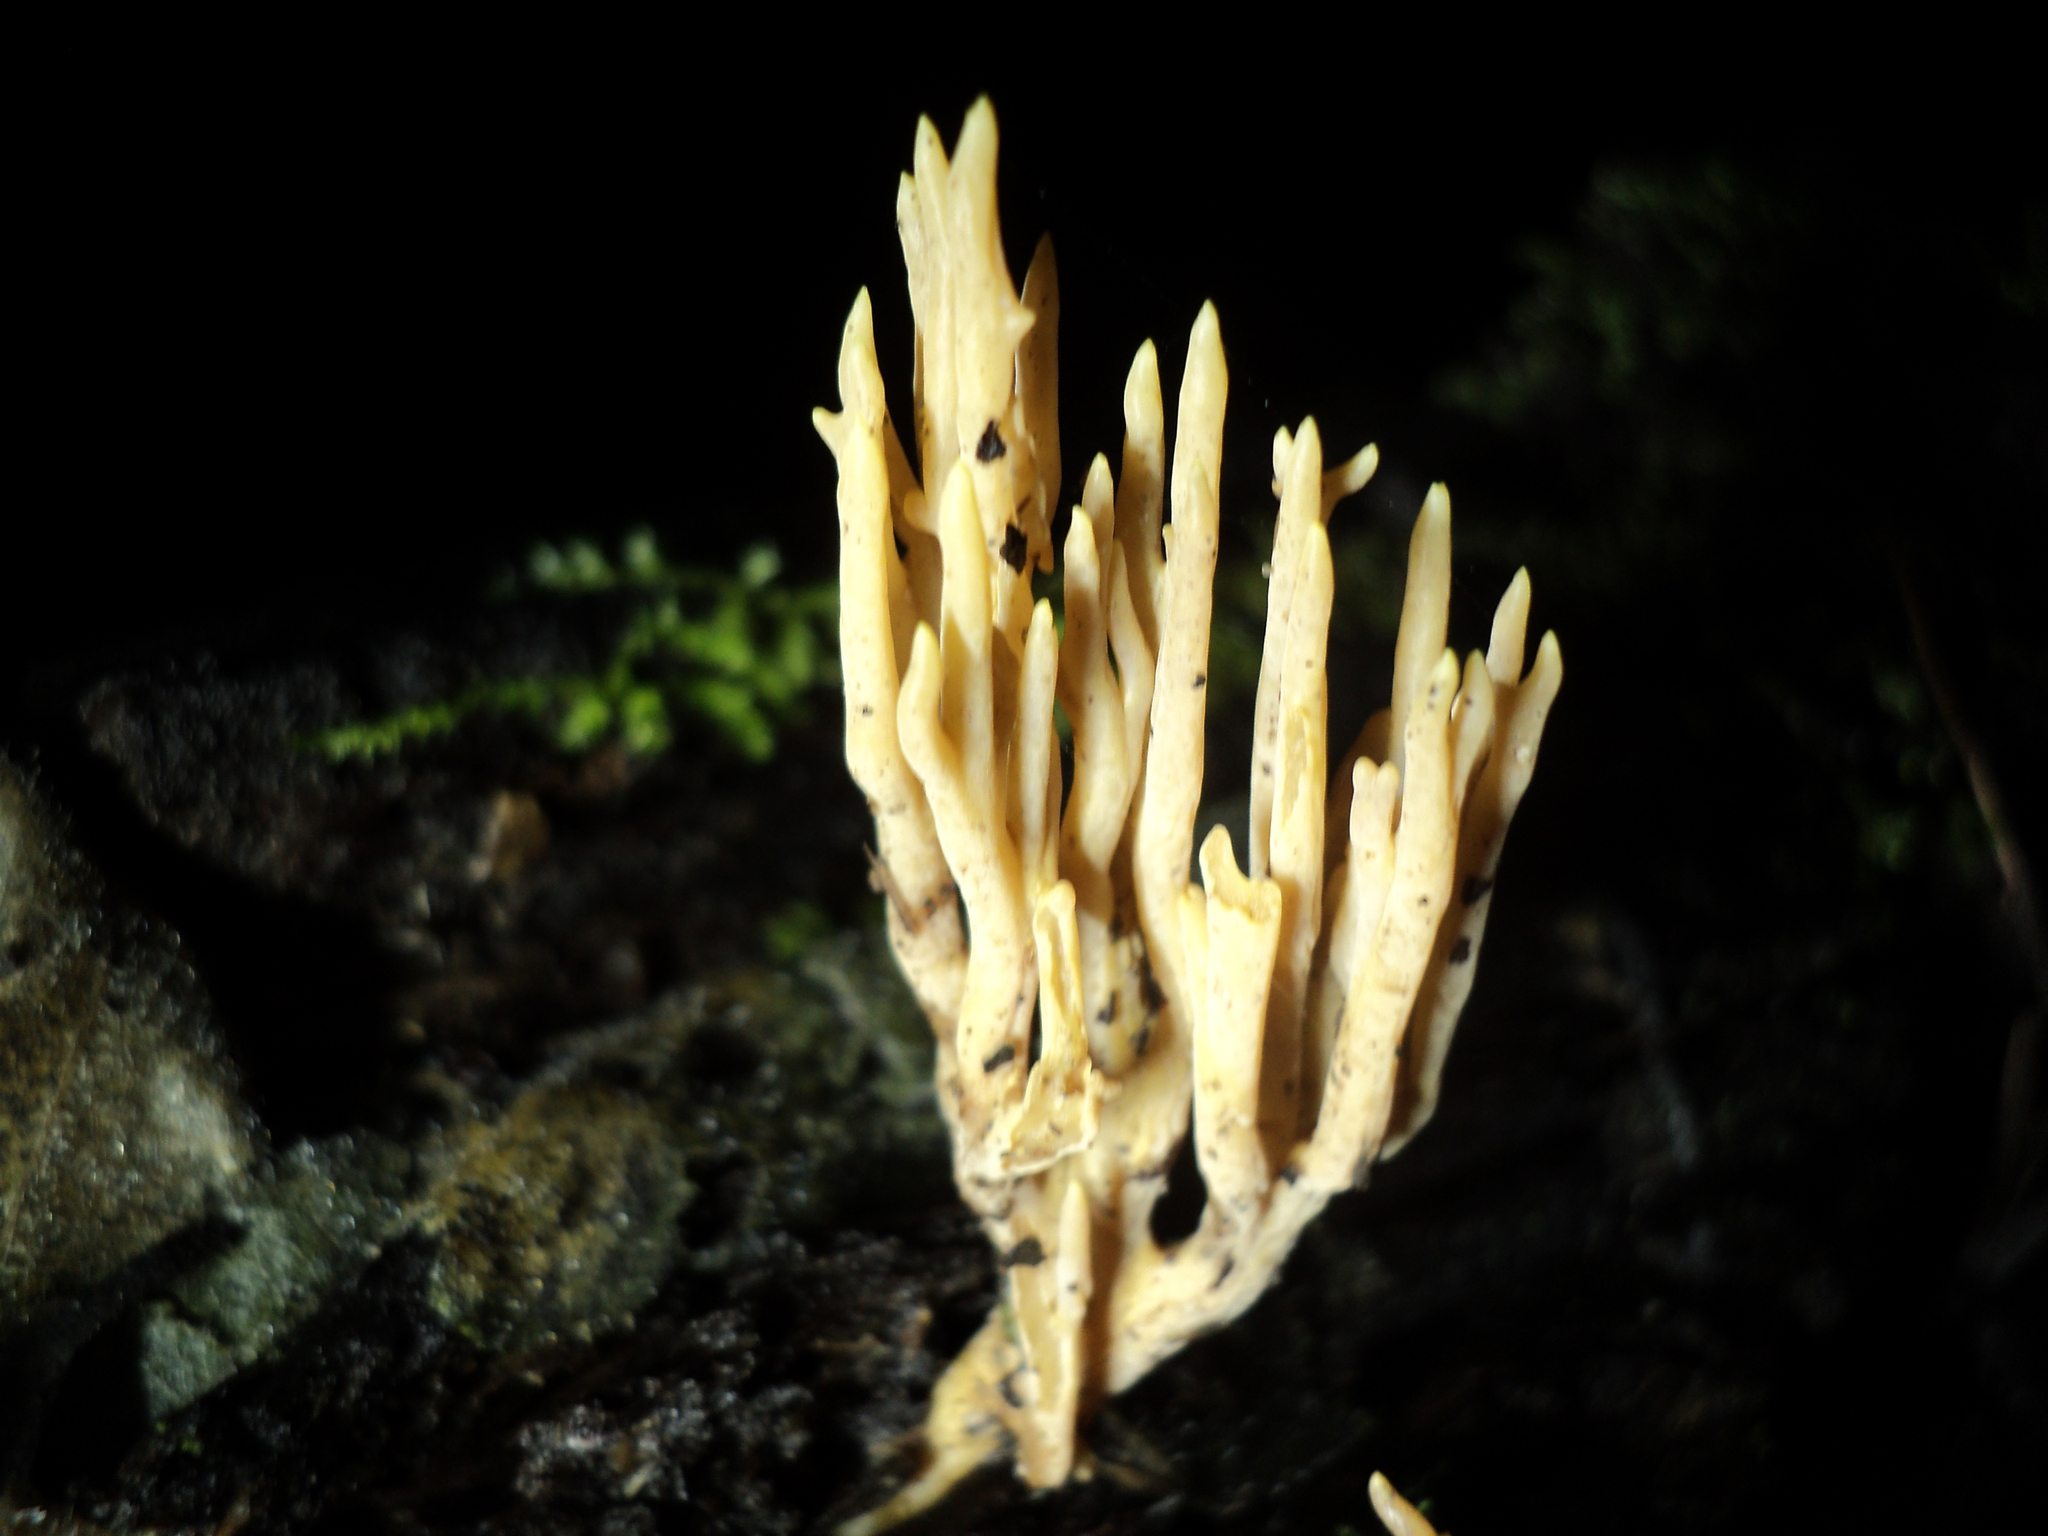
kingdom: Fungi
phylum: Basidiomycota
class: Agaricomycetes
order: Tremellodendropsidales
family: Tremellodendropsidaceae
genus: Tremellodendropsis
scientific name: Tremellodendropsis tuberosa
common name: Ashen coral
